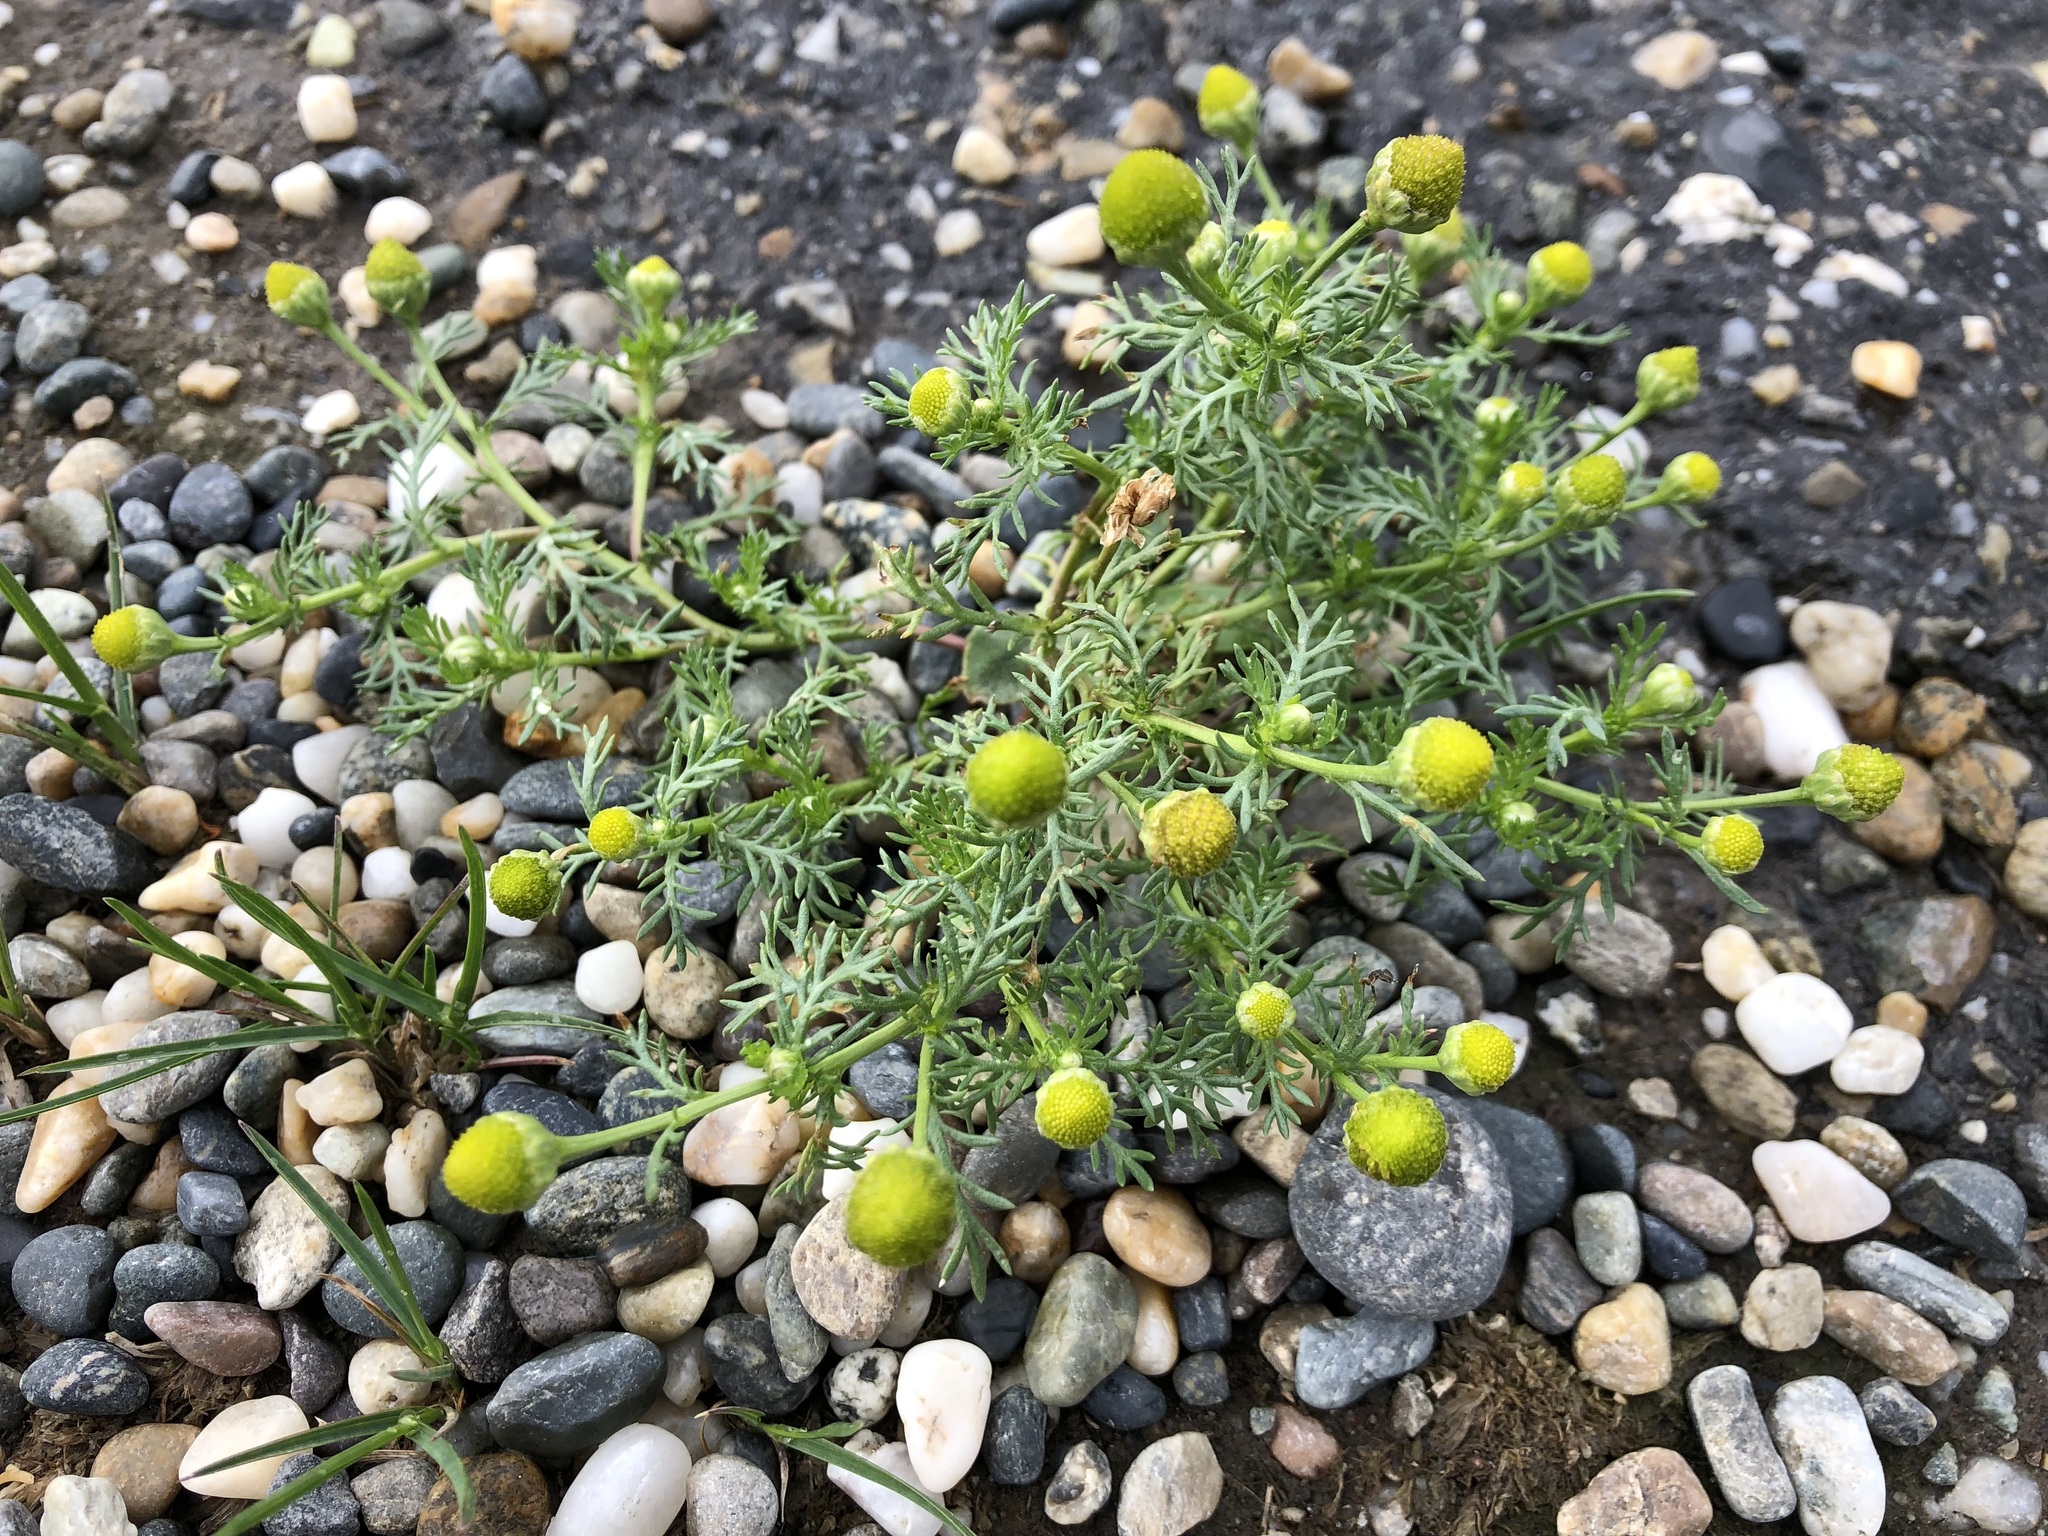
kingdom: Plantae
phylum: Tracheophyta
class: Magnoliopsida
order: Asterales
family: Asteraceae
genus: Matricaria
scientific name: Matricaria discoidea
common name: Disc mayweed
